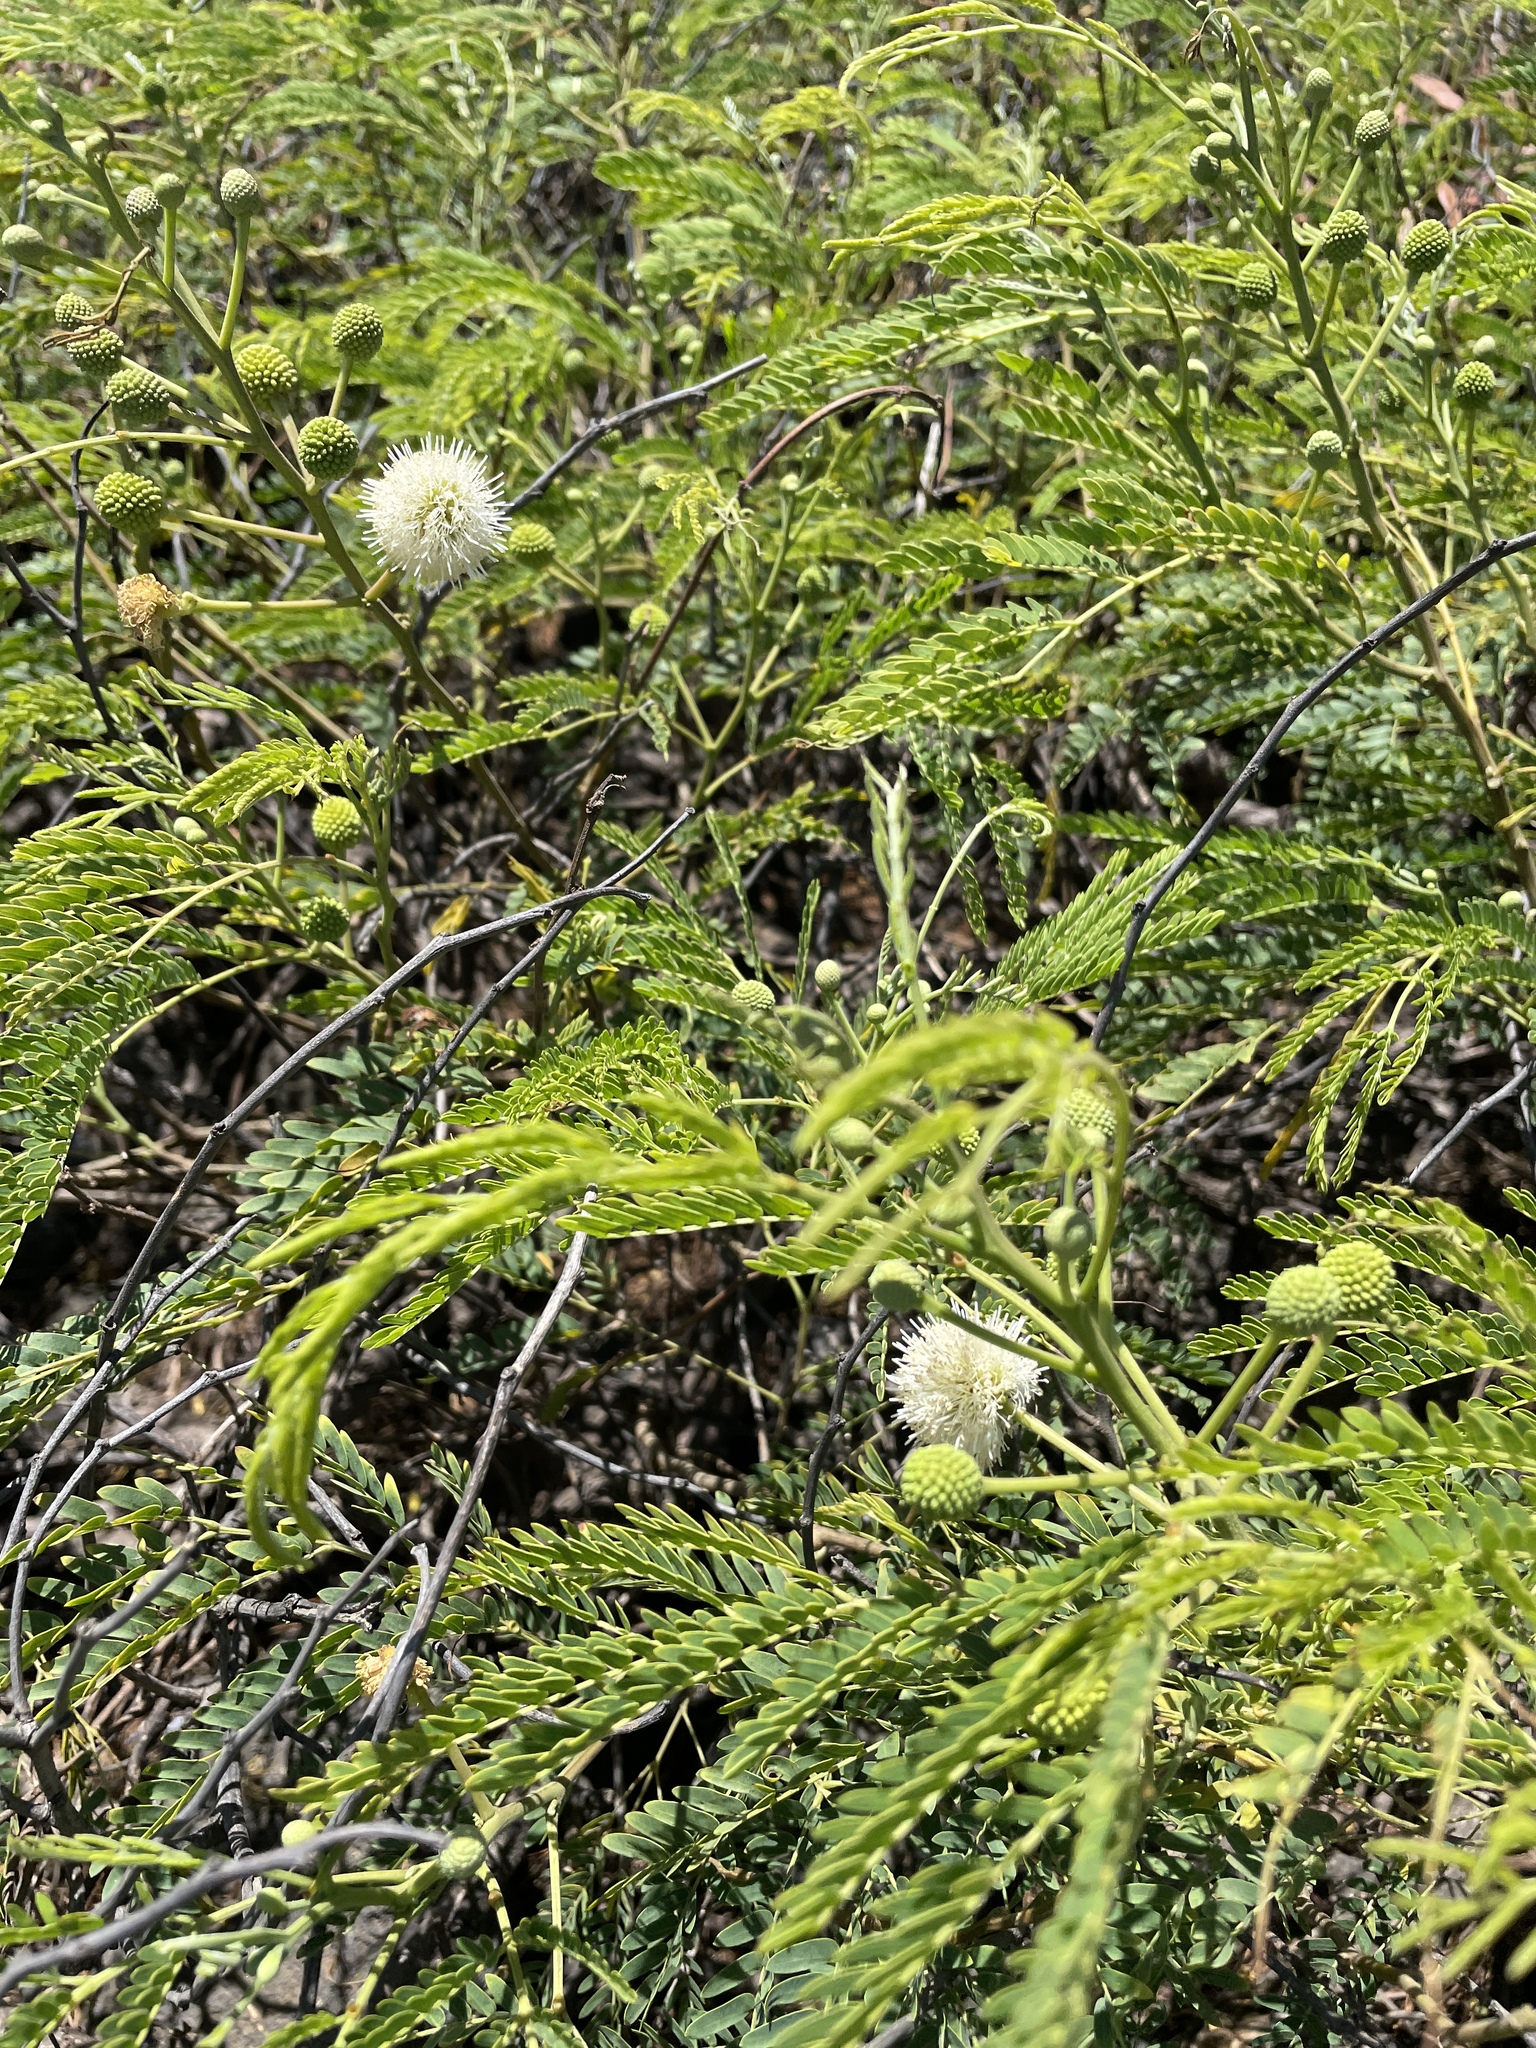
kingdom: Plantae
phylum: Tracheophyta
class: Magnoliopsida
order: Fabales
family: Fabaceae
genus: Leucaena
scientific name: Leucaena leucocephala
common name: White leadtree
